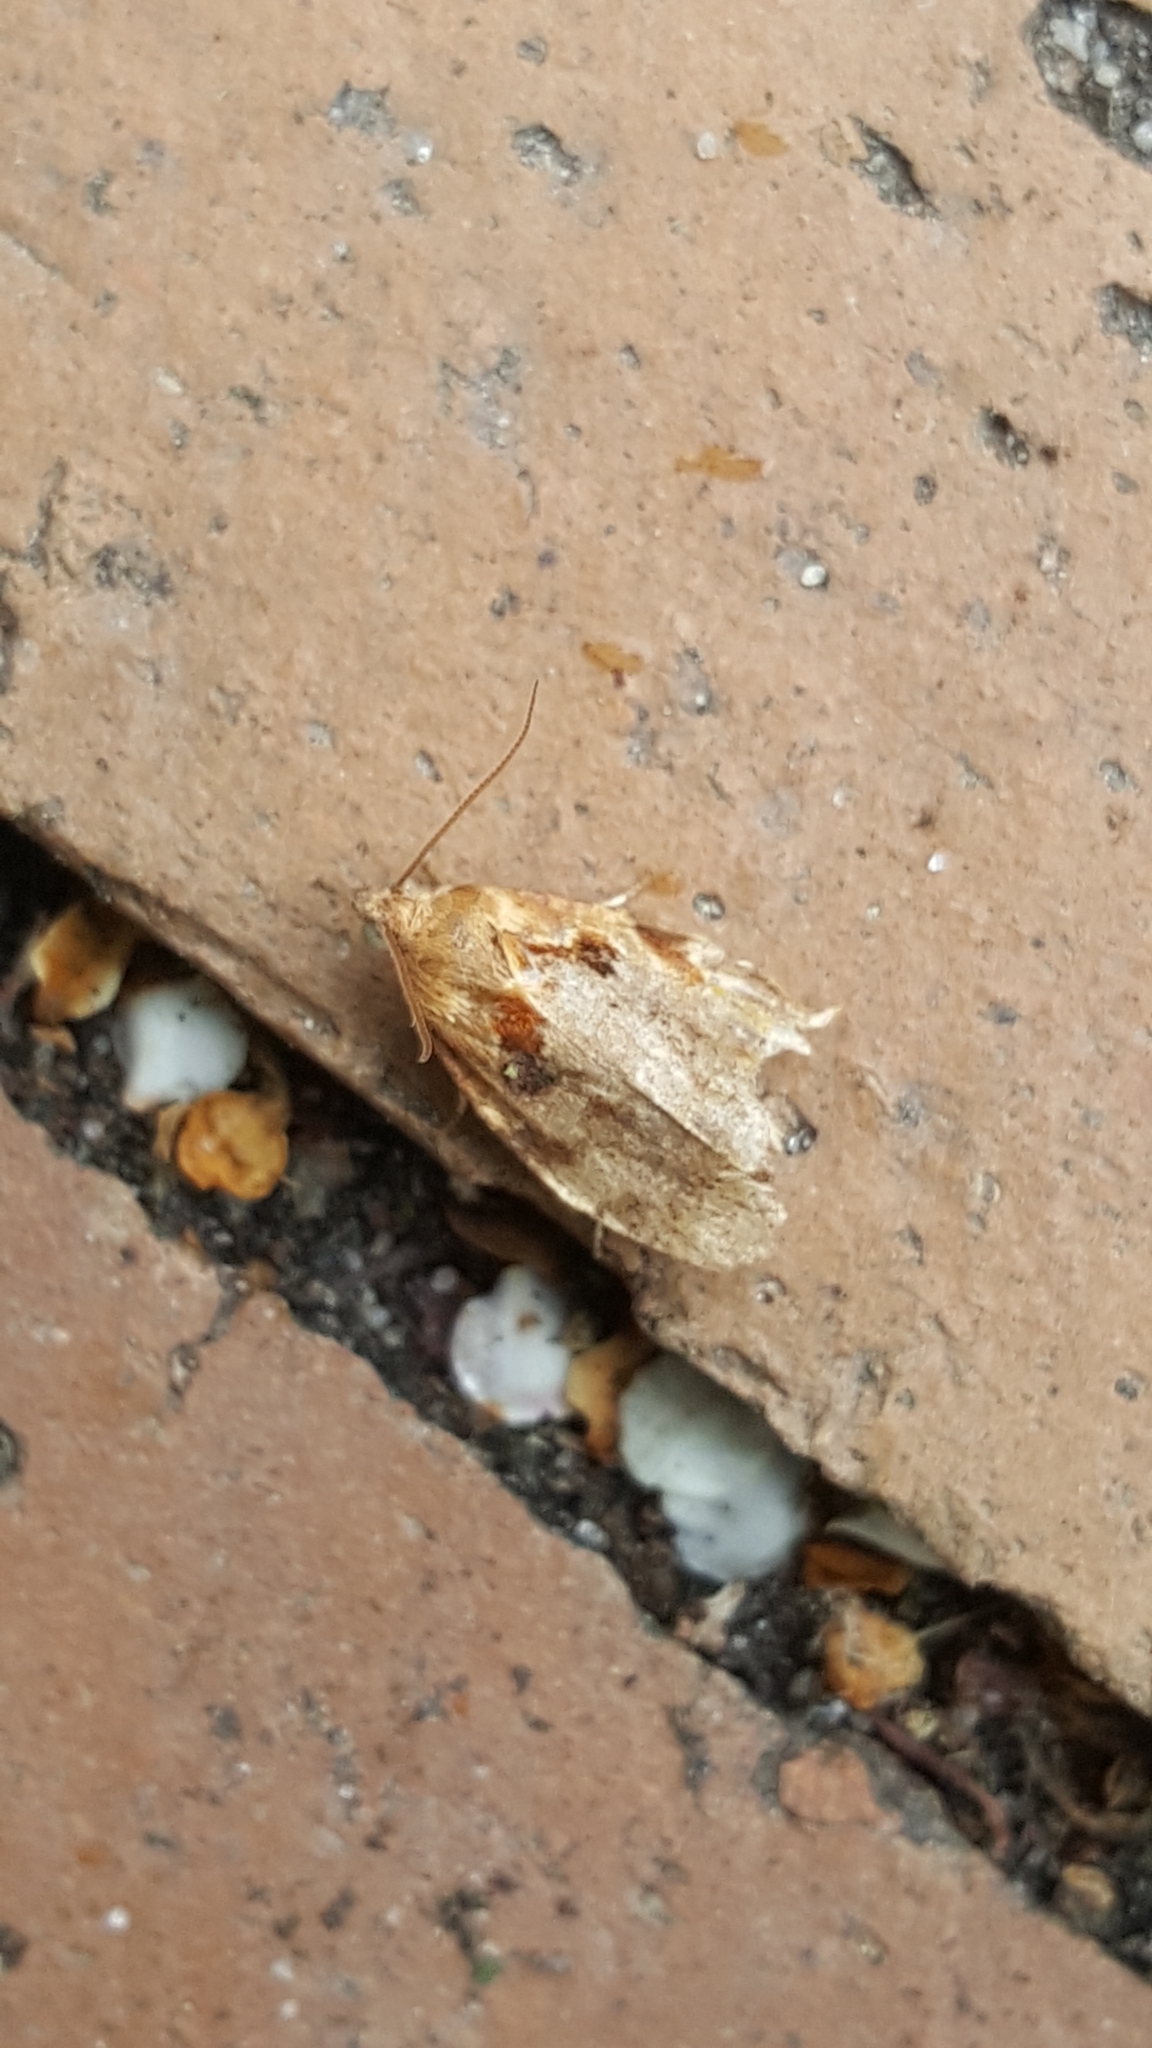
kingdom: Animalia
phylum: Arthropoda
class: Insecta
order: Lepidoptera
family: Tortricidae
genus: Archips
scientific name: Archips xylosteana
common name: Variegated golden tortrix
